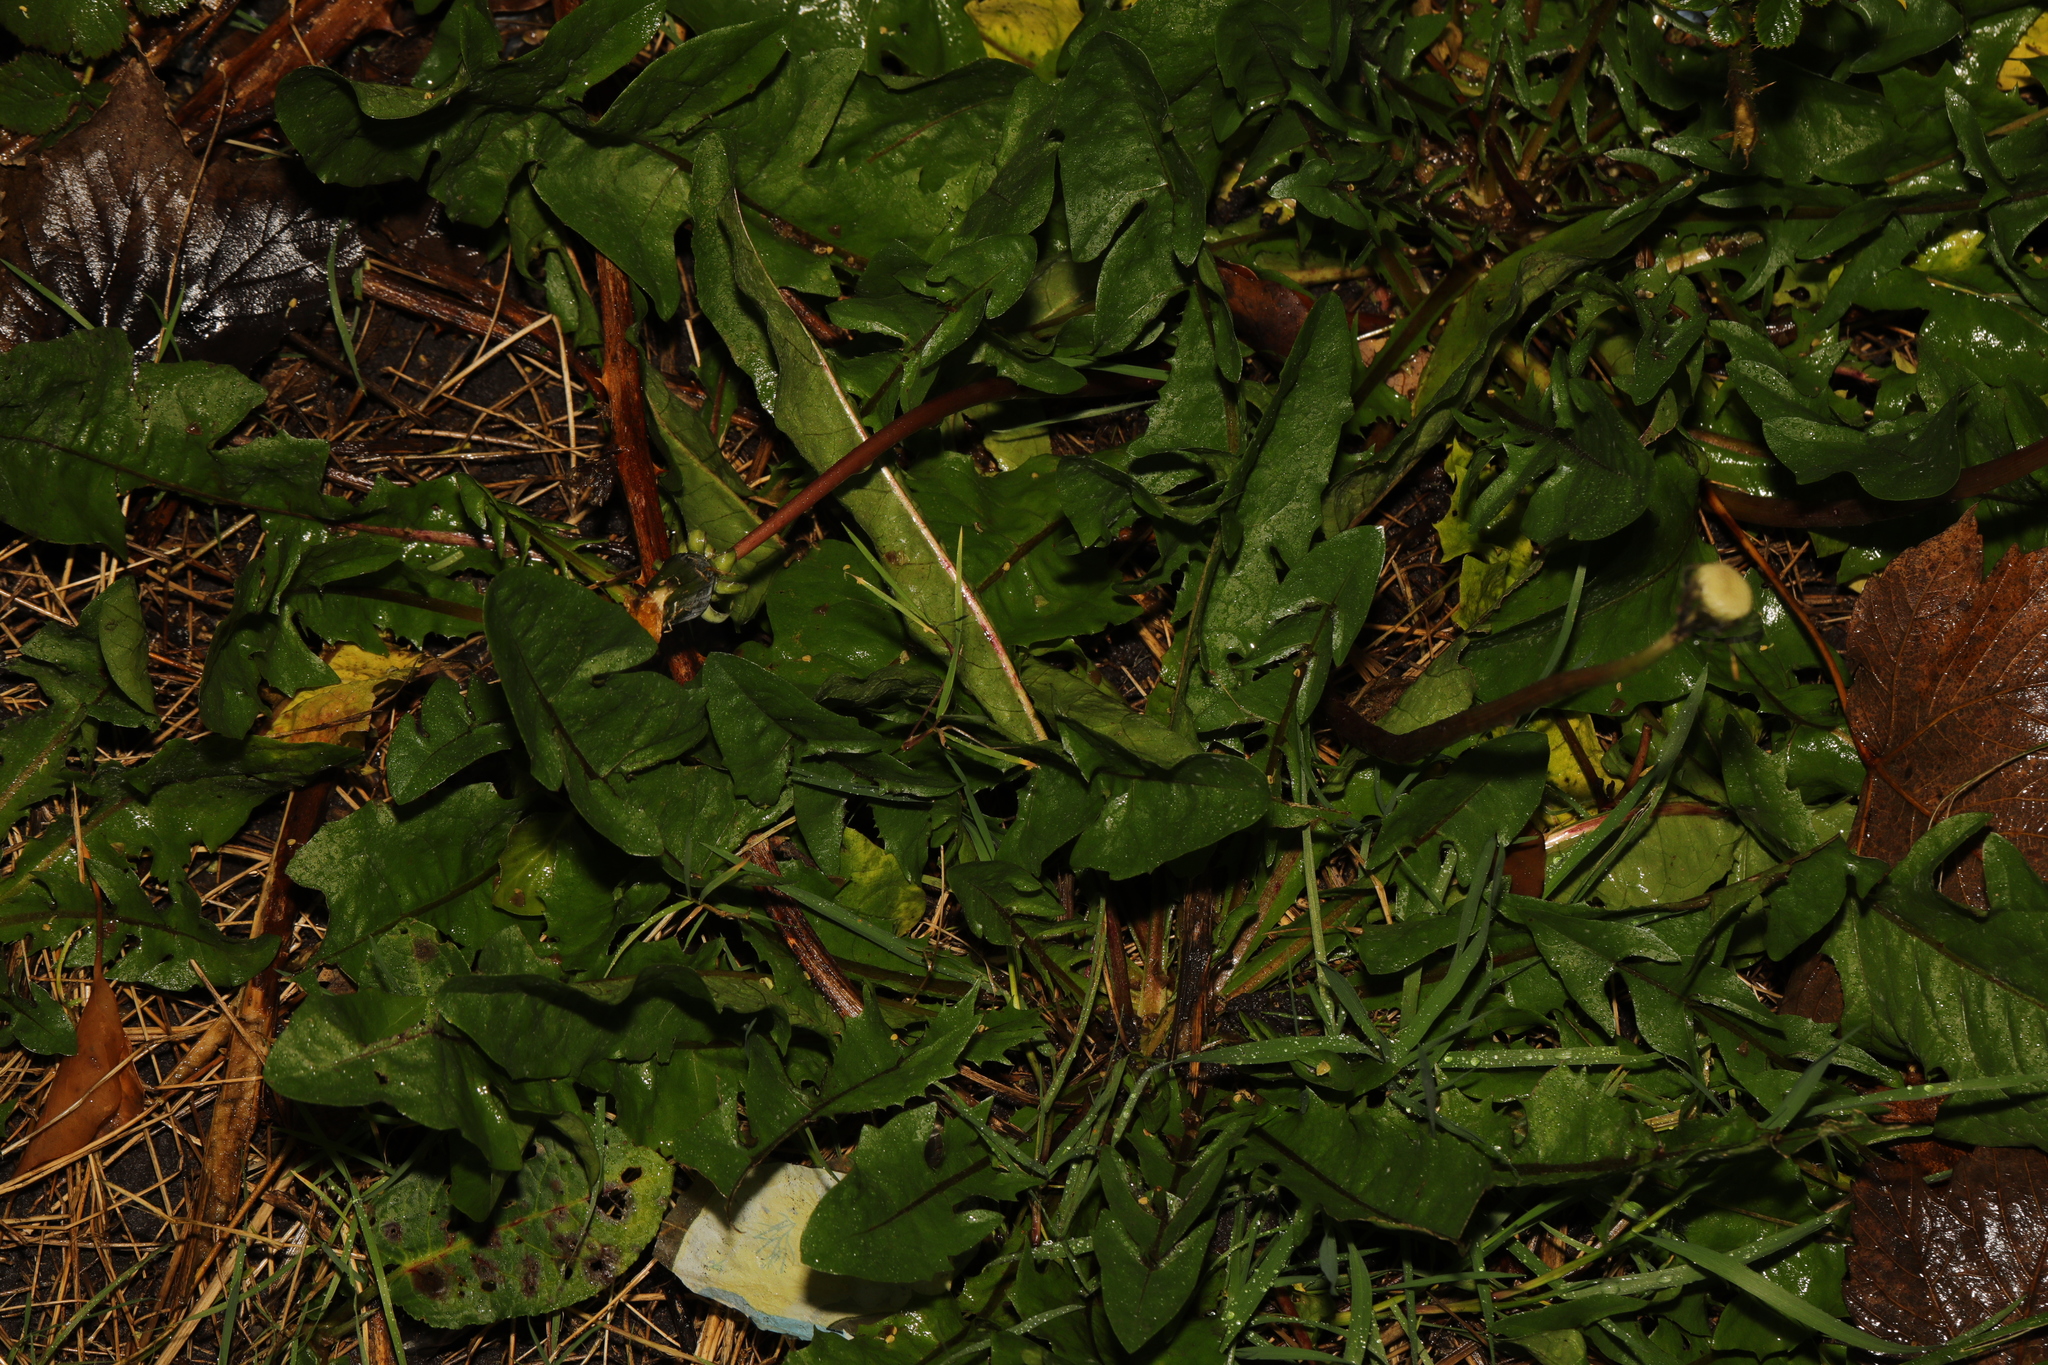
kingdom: Plantae
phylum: Tracheophyta
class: Magnoliopsida
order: Asterales
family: Asteraceae
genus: Taraxacum
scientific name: Taraxacum officinale
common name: Common dandelion
